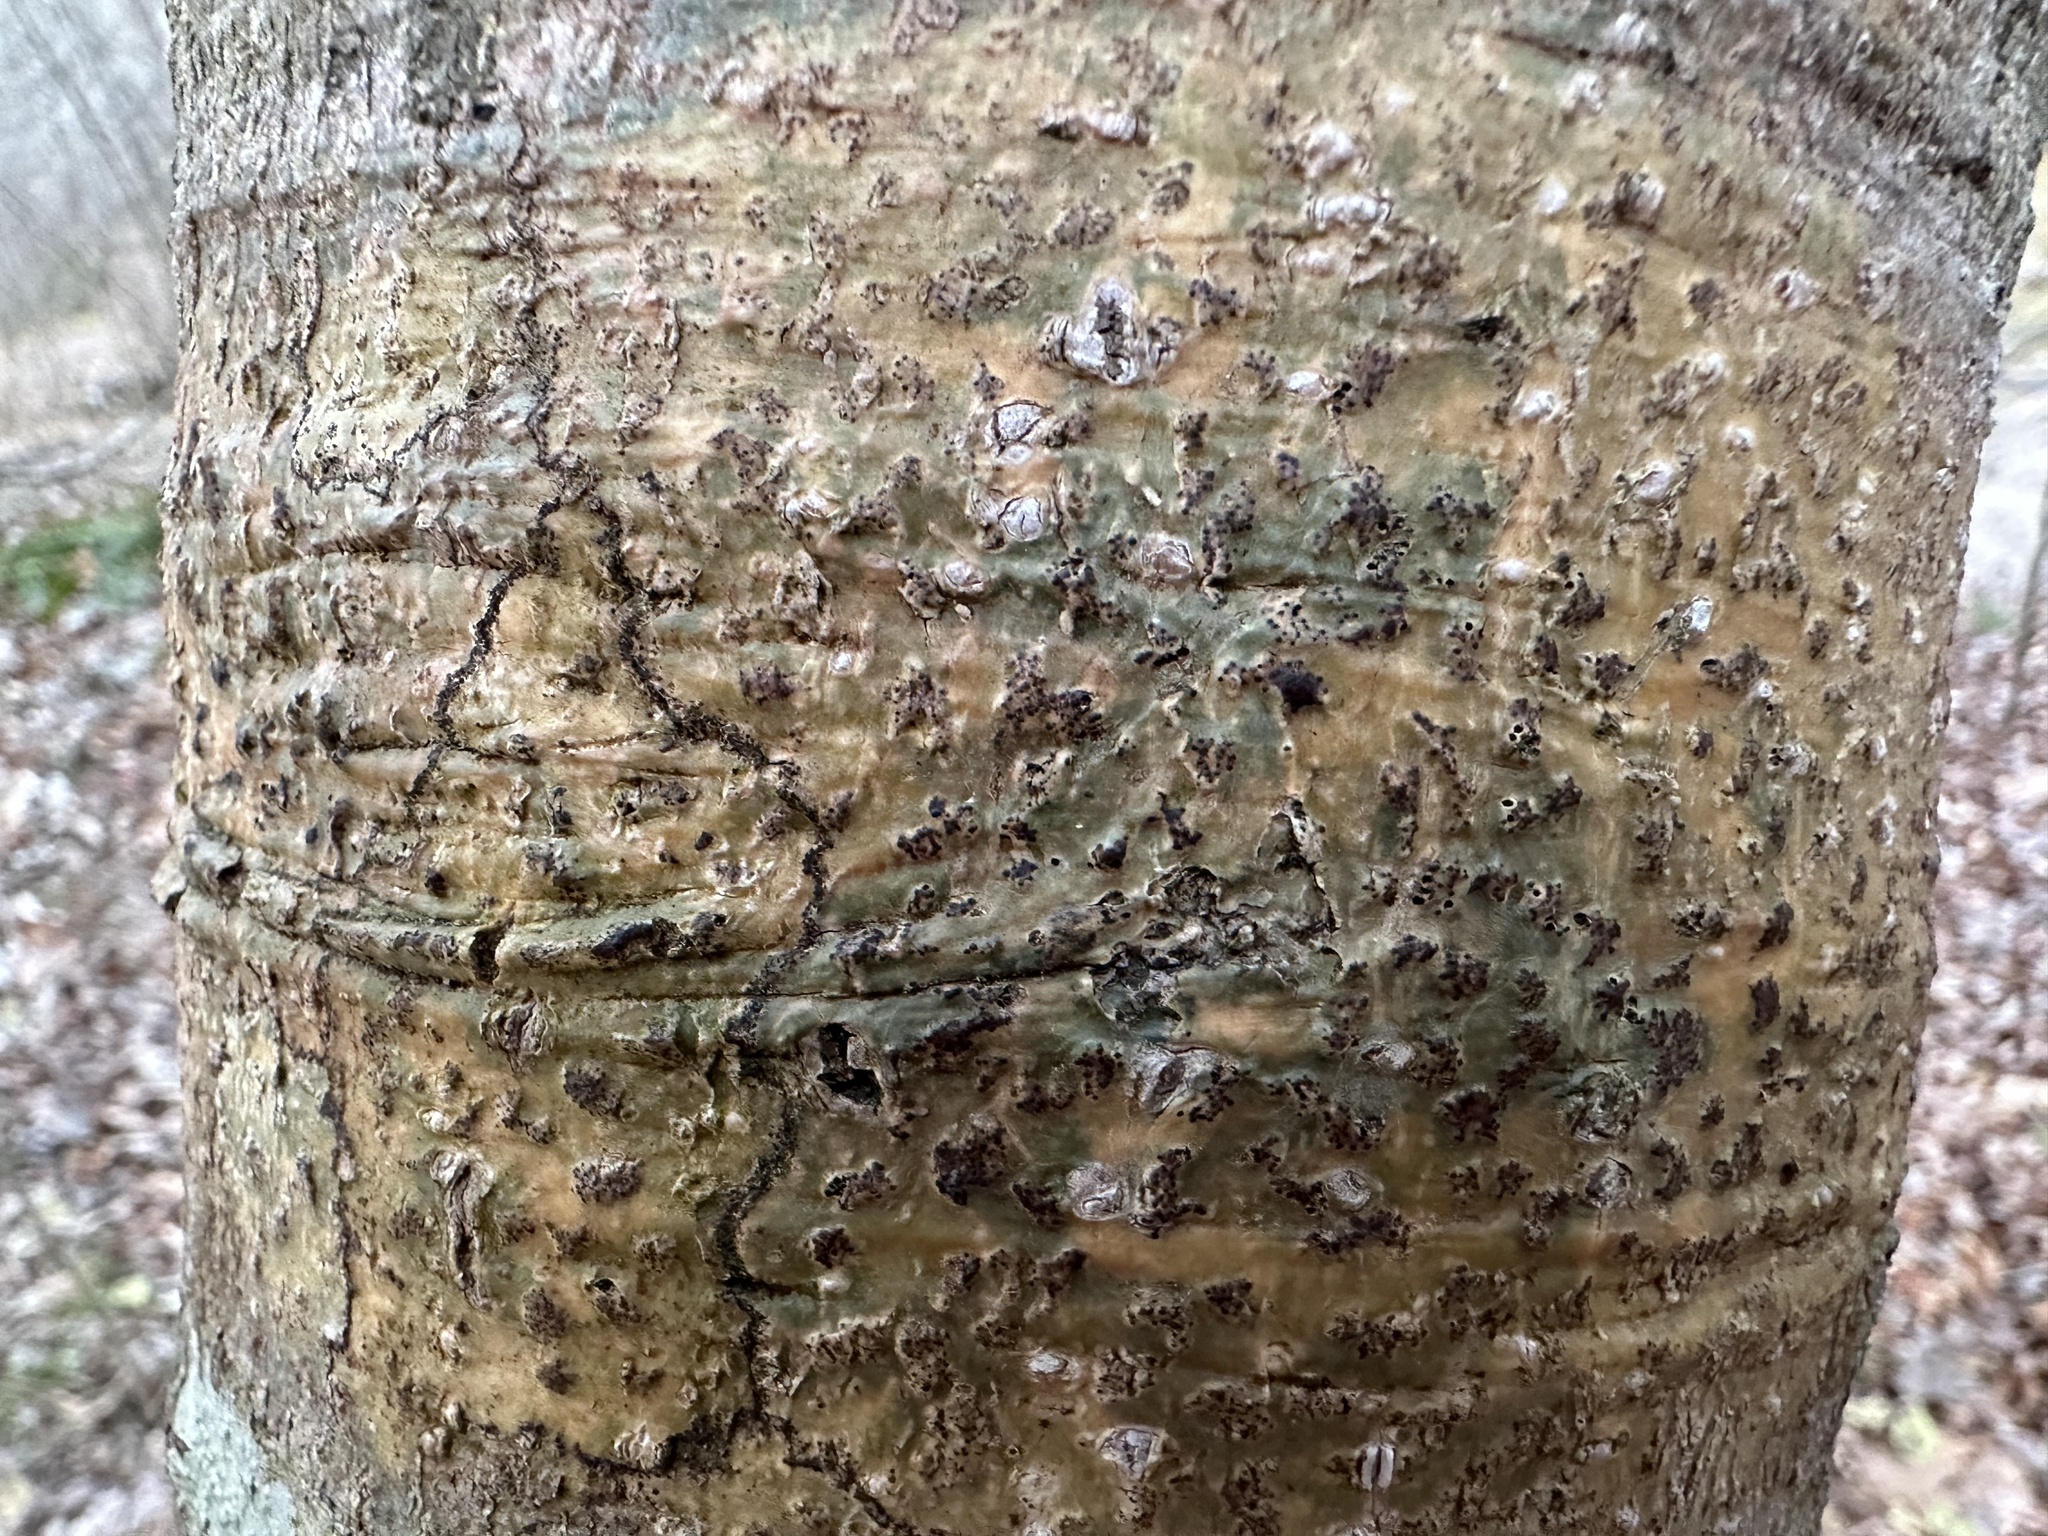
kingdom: Fungi
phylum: Ascomycota
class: Dothideomycetes
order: Trypetheliales
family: Trypetheliaceae
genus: Viridothelium
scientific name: Viridothelium virens
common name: Speckled blister lichen
